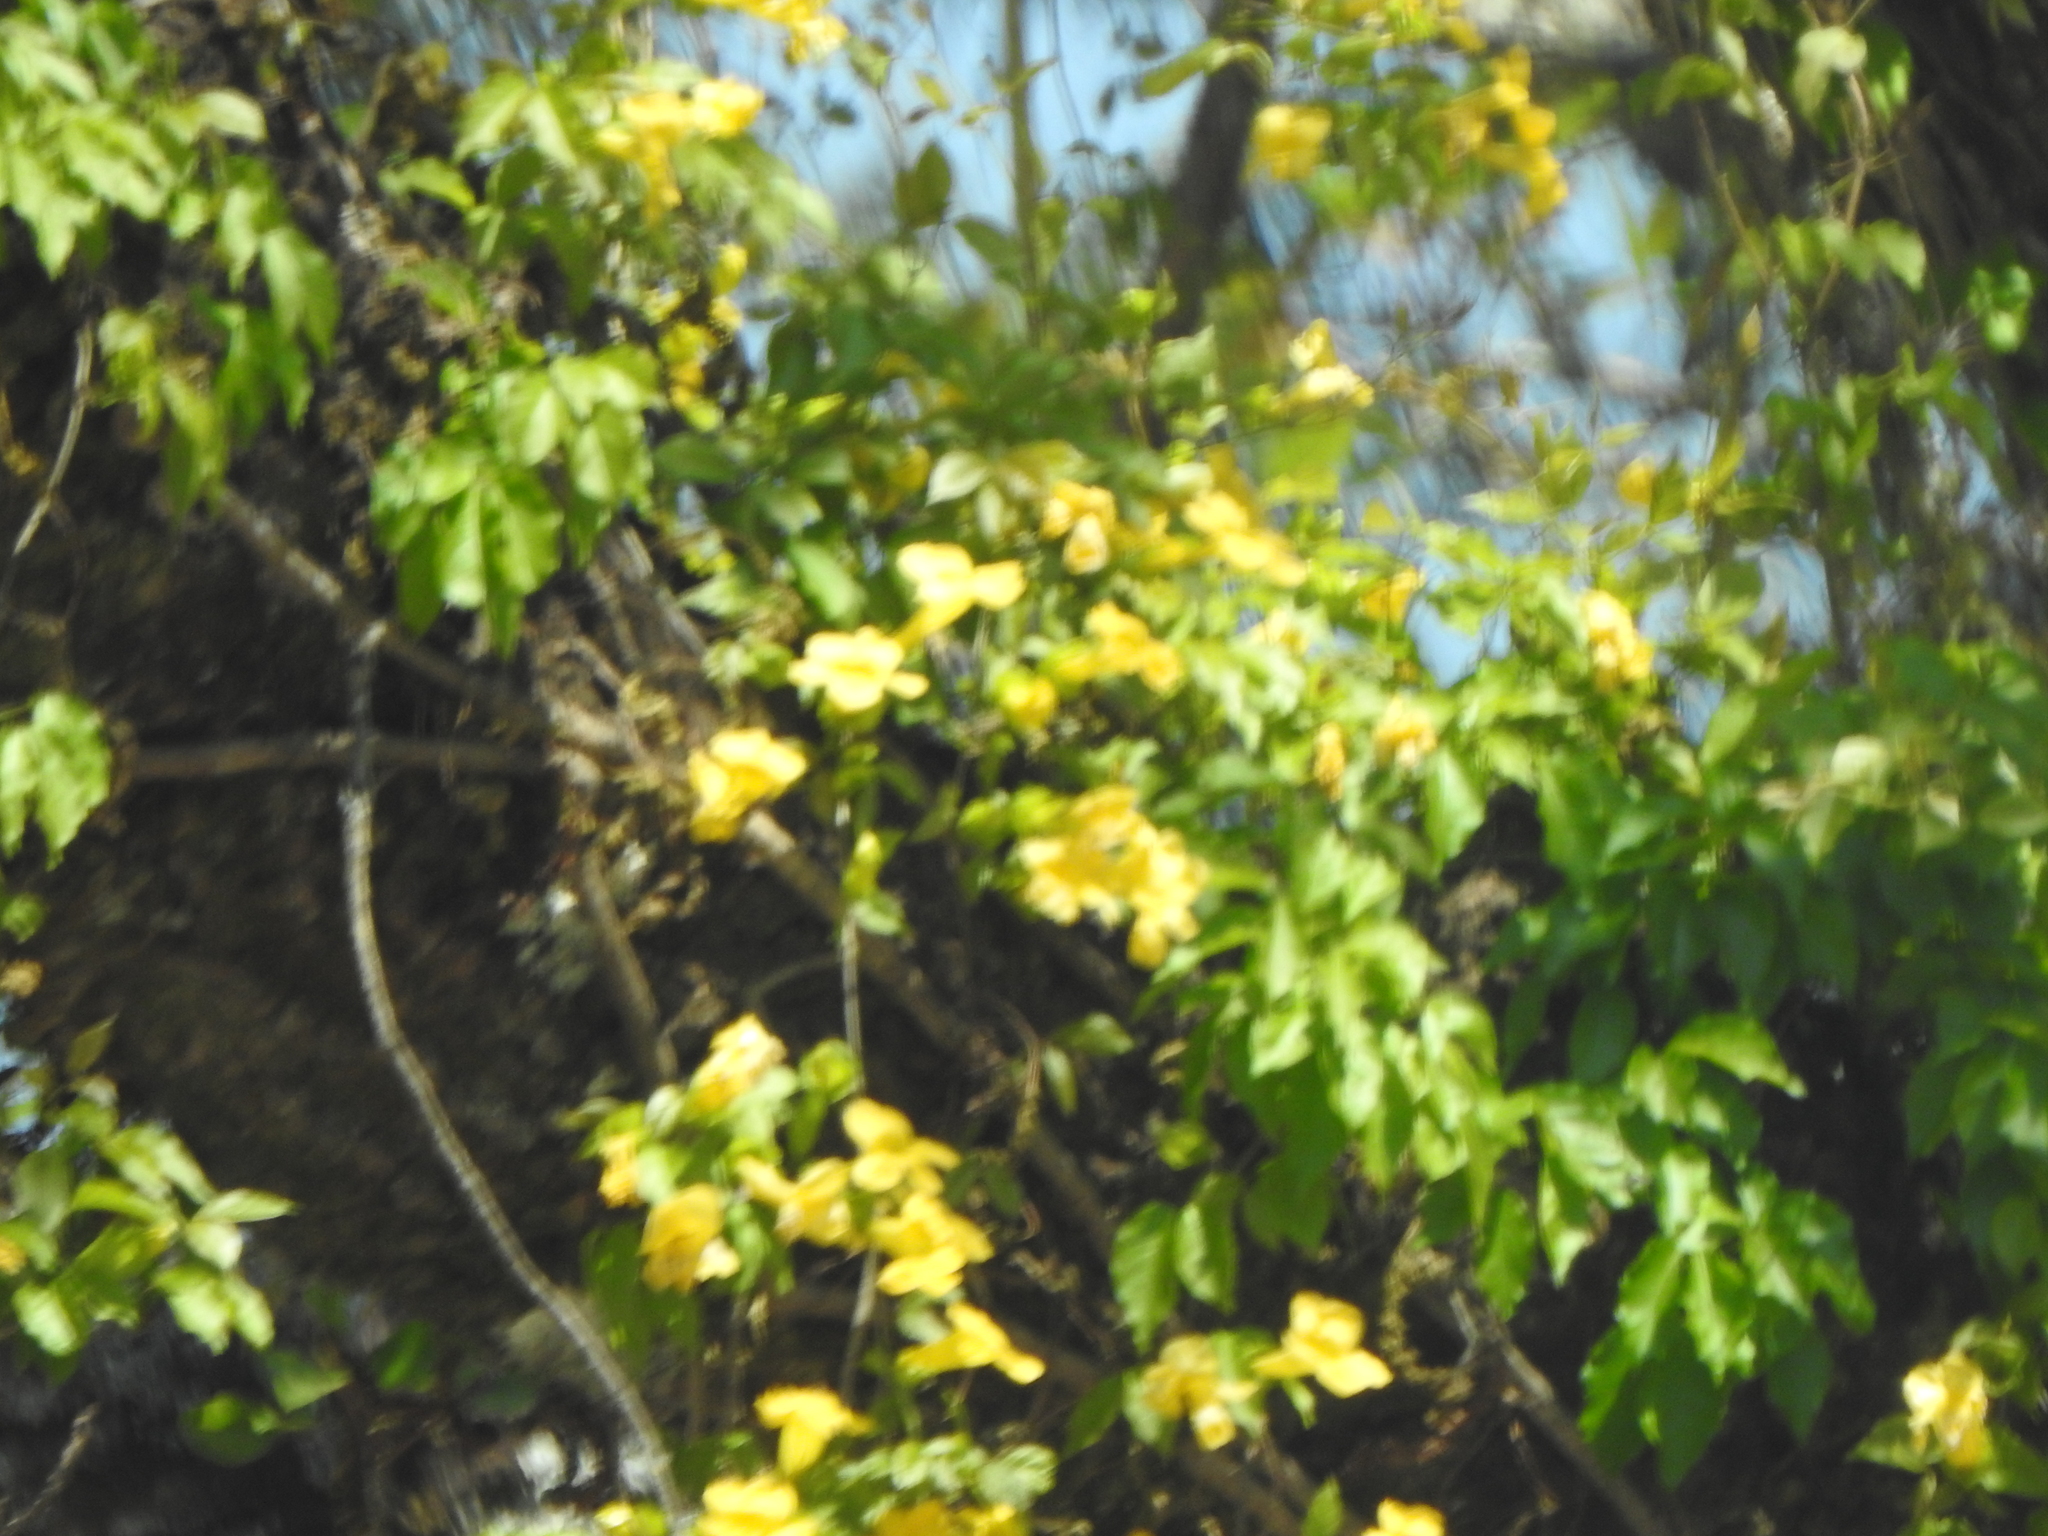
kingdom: Plantae
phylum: Tracheophyta
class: Magnoliopsida
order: Lamiales
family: Bignoniaceae
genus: Dolichandra
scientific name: Dolichandra unguis-cati
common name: Catclaw vine
